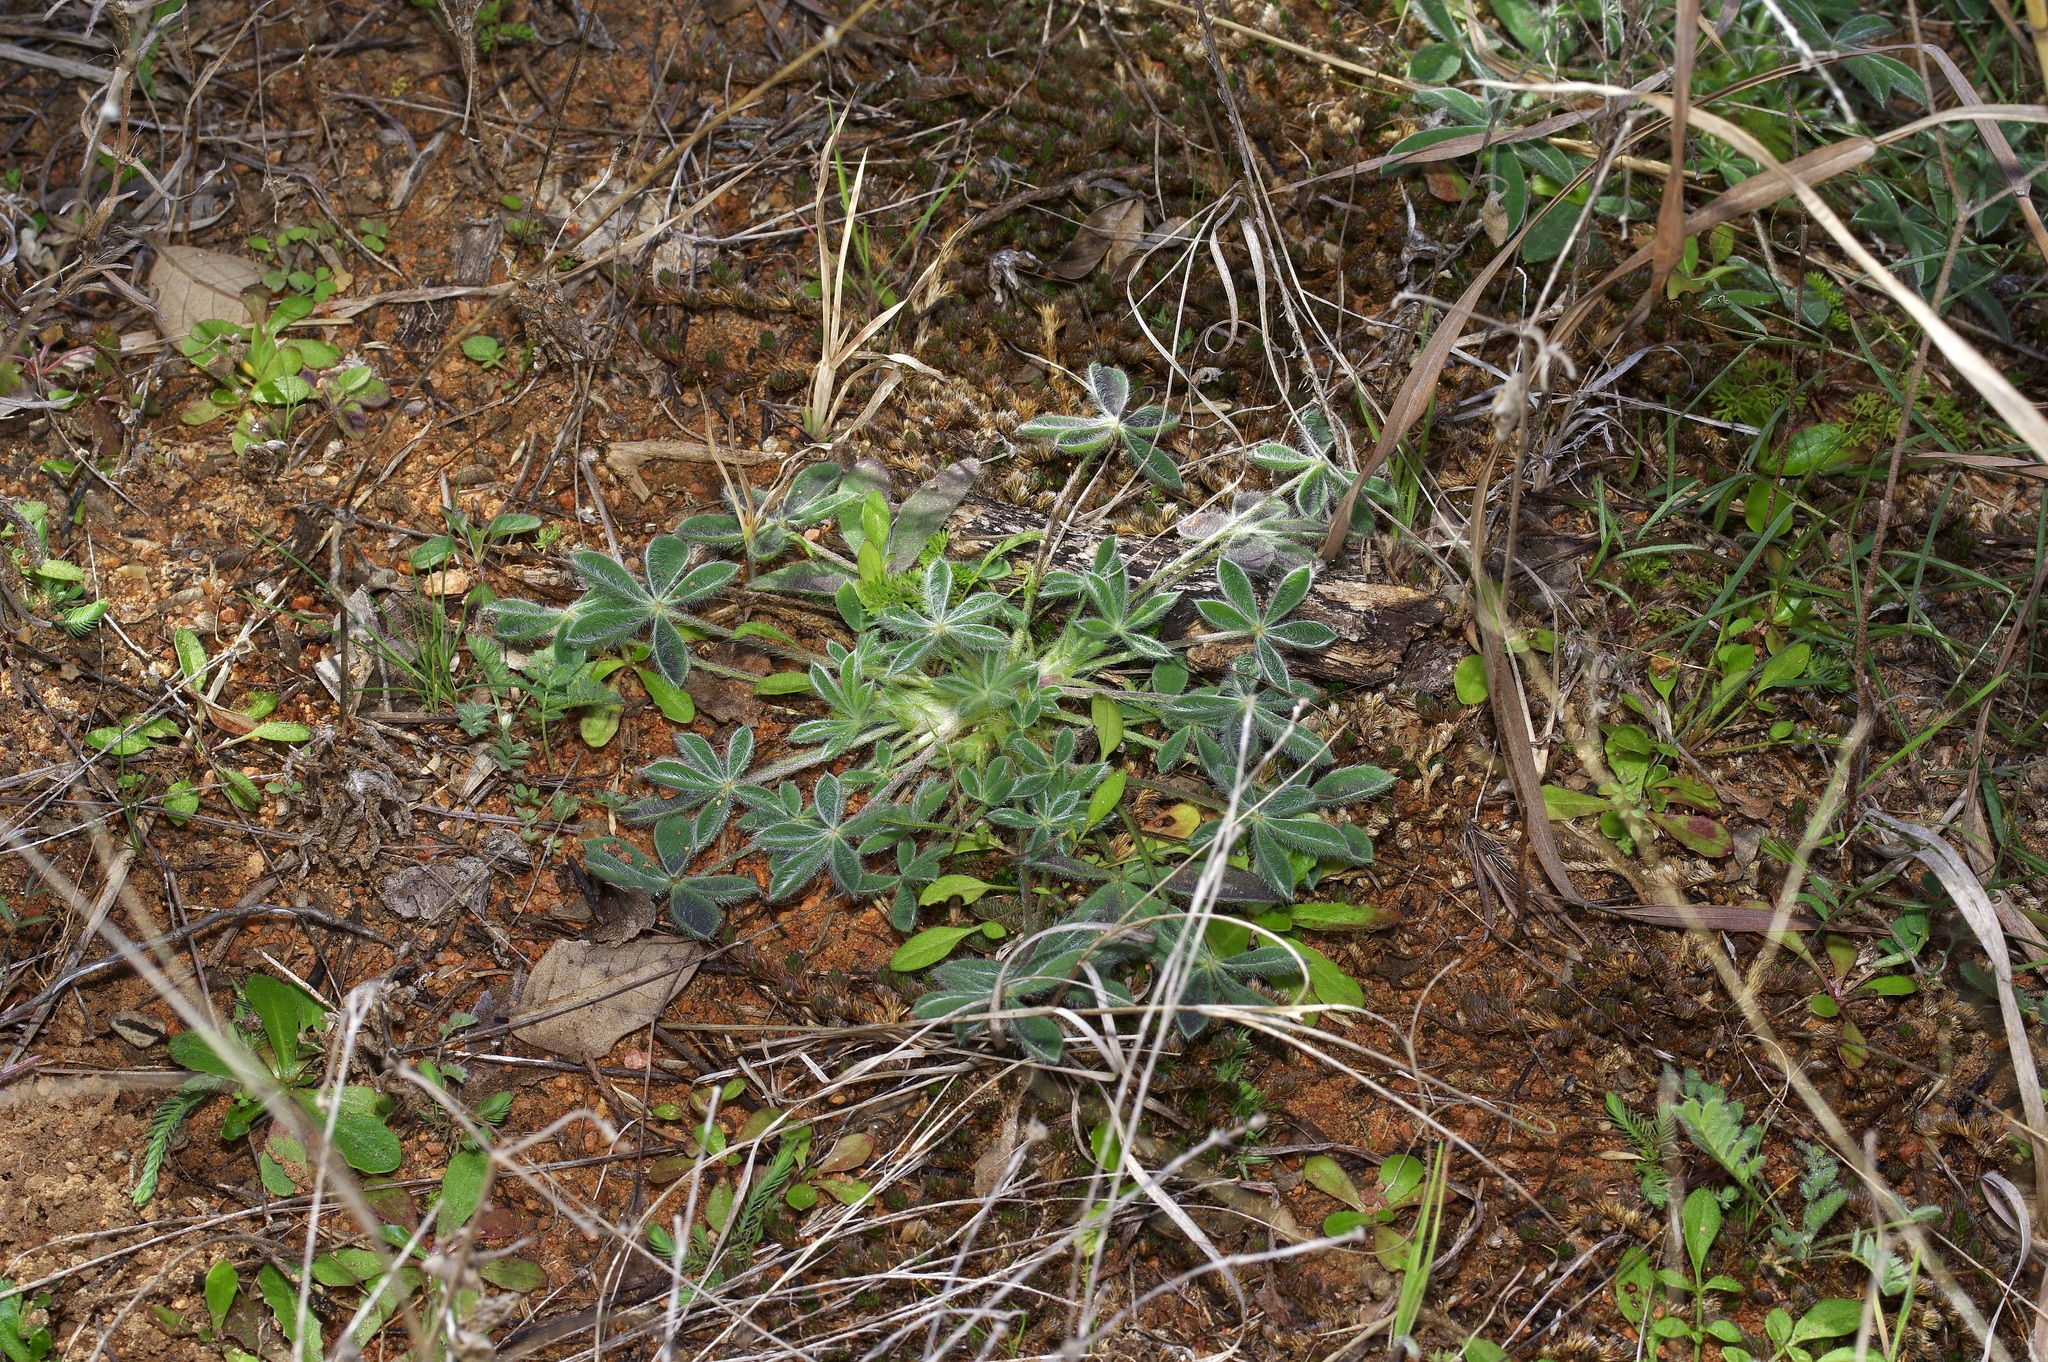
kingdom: Plantae
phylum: Tracheophyta
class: Magnoliopsida
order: Fabales
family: Fabaceae
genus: Lupinus
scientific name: Lupinus texensis
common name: Texas bluebonnet
